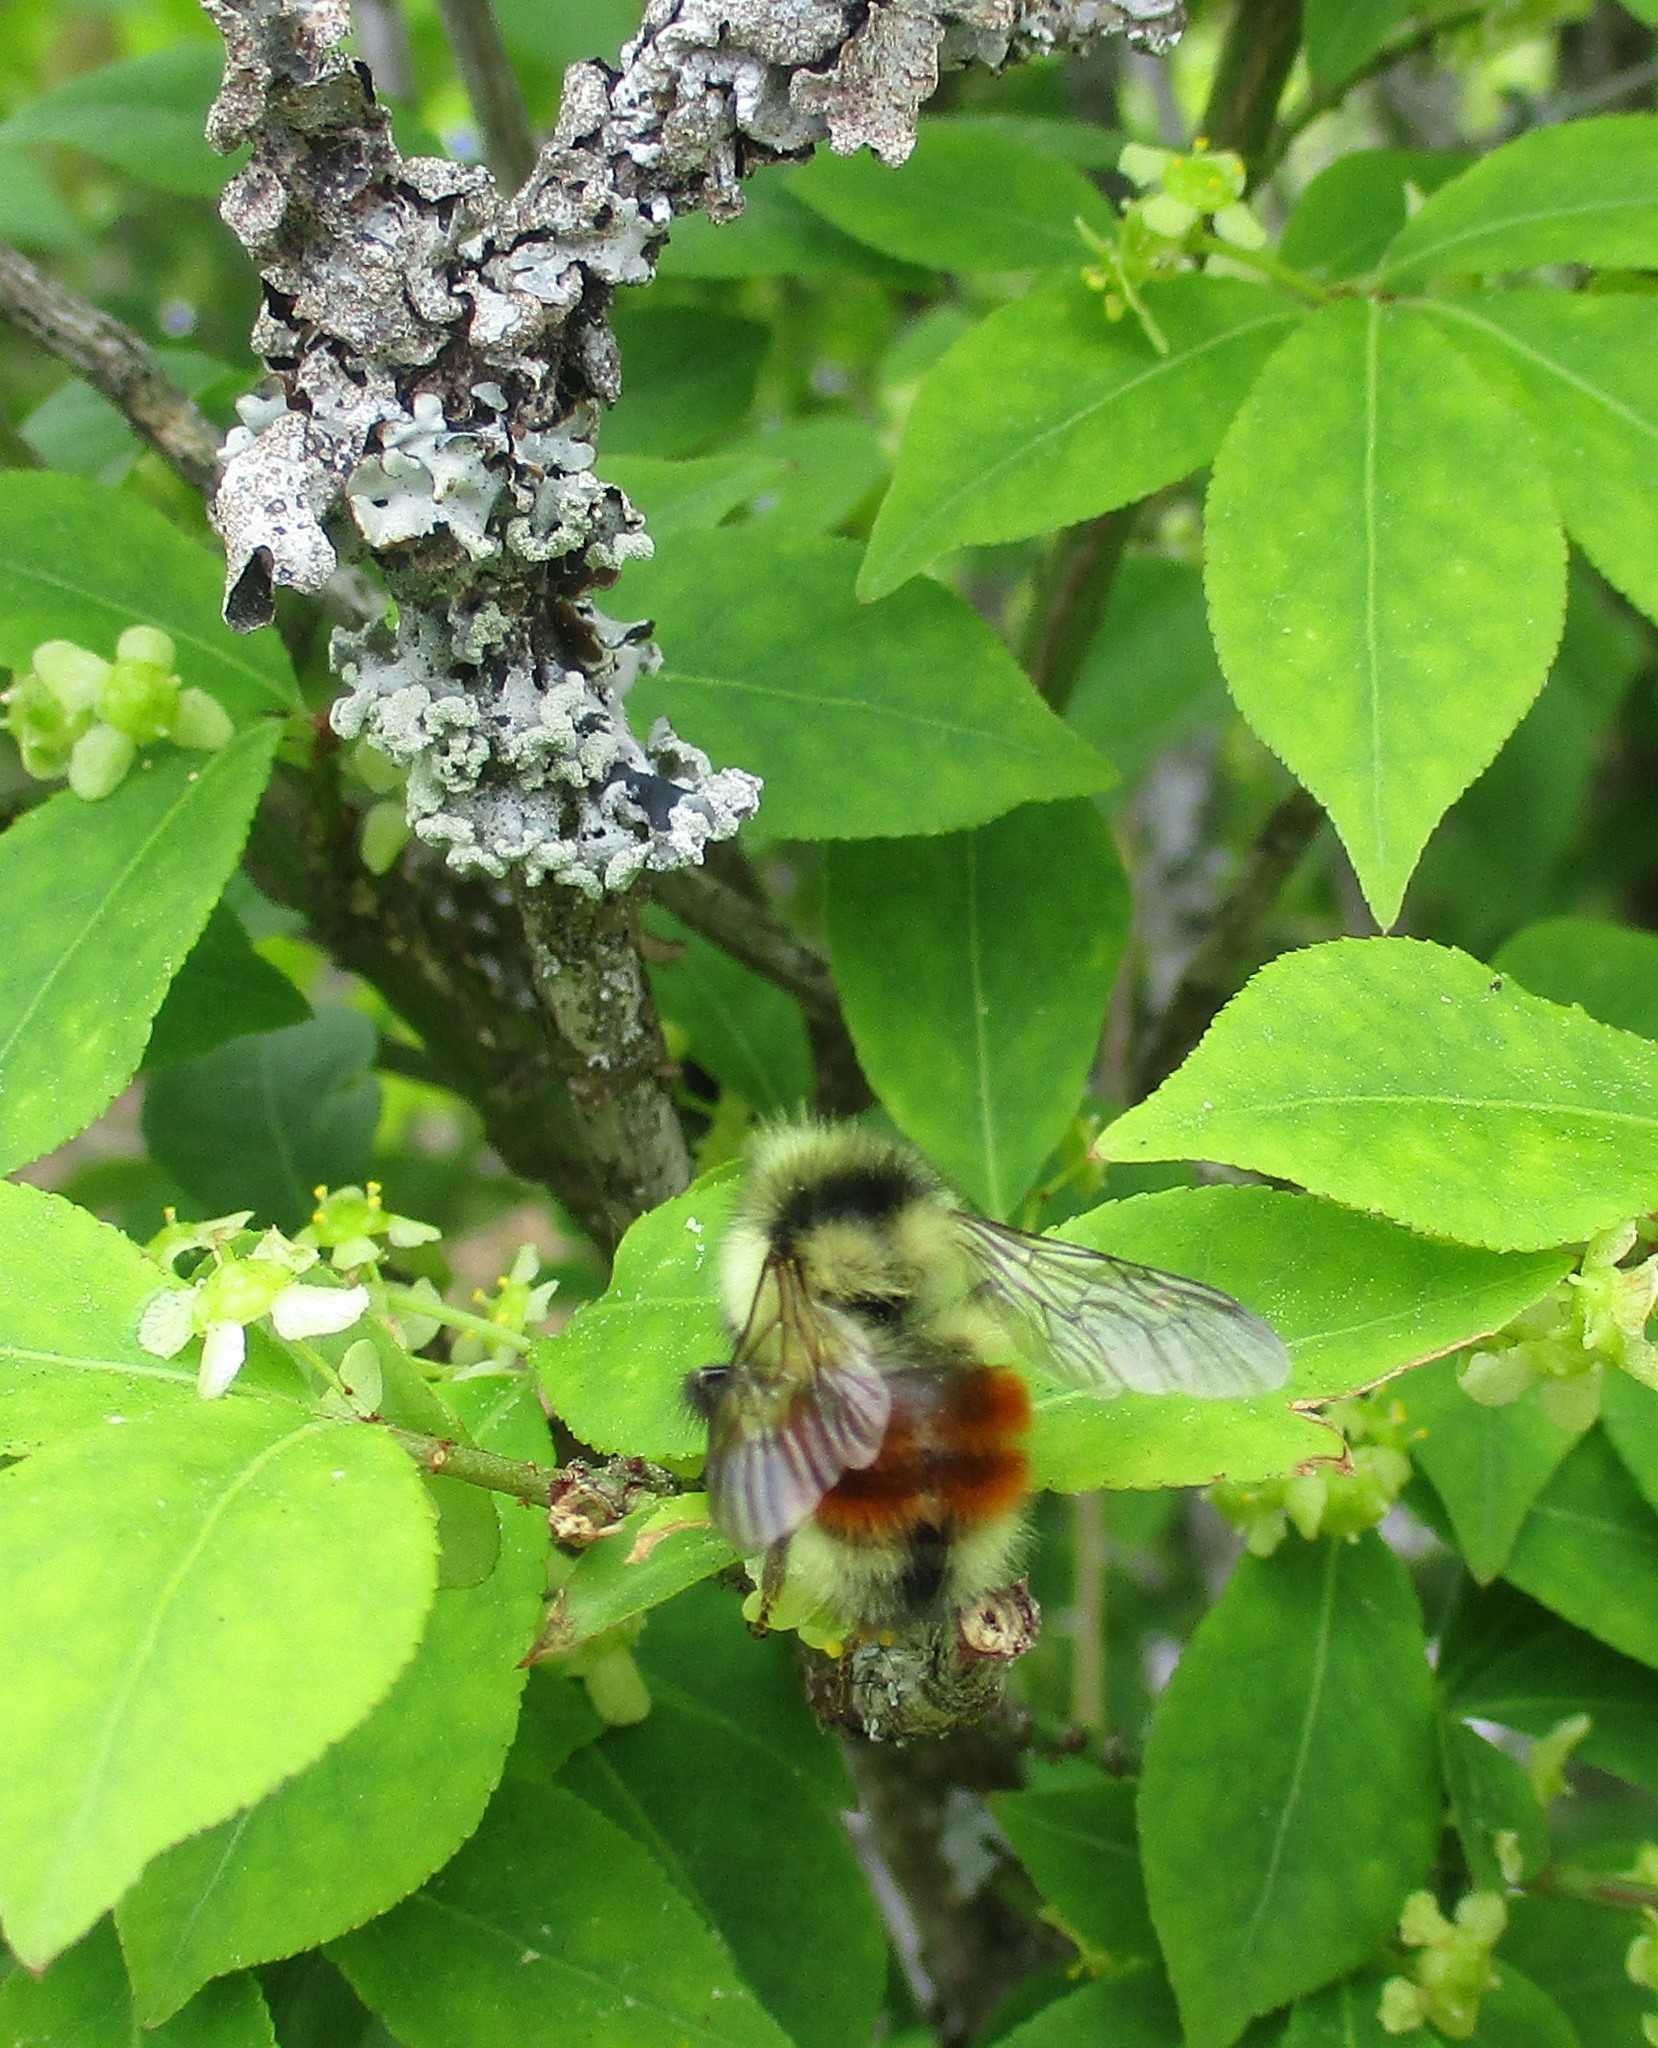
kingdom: Animalia
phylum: Arthropoda
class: Insecta
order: Hymenoptera
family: Apidae
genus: Bombus
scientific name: Bombus melanopygus
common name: Black tail bumble bee
